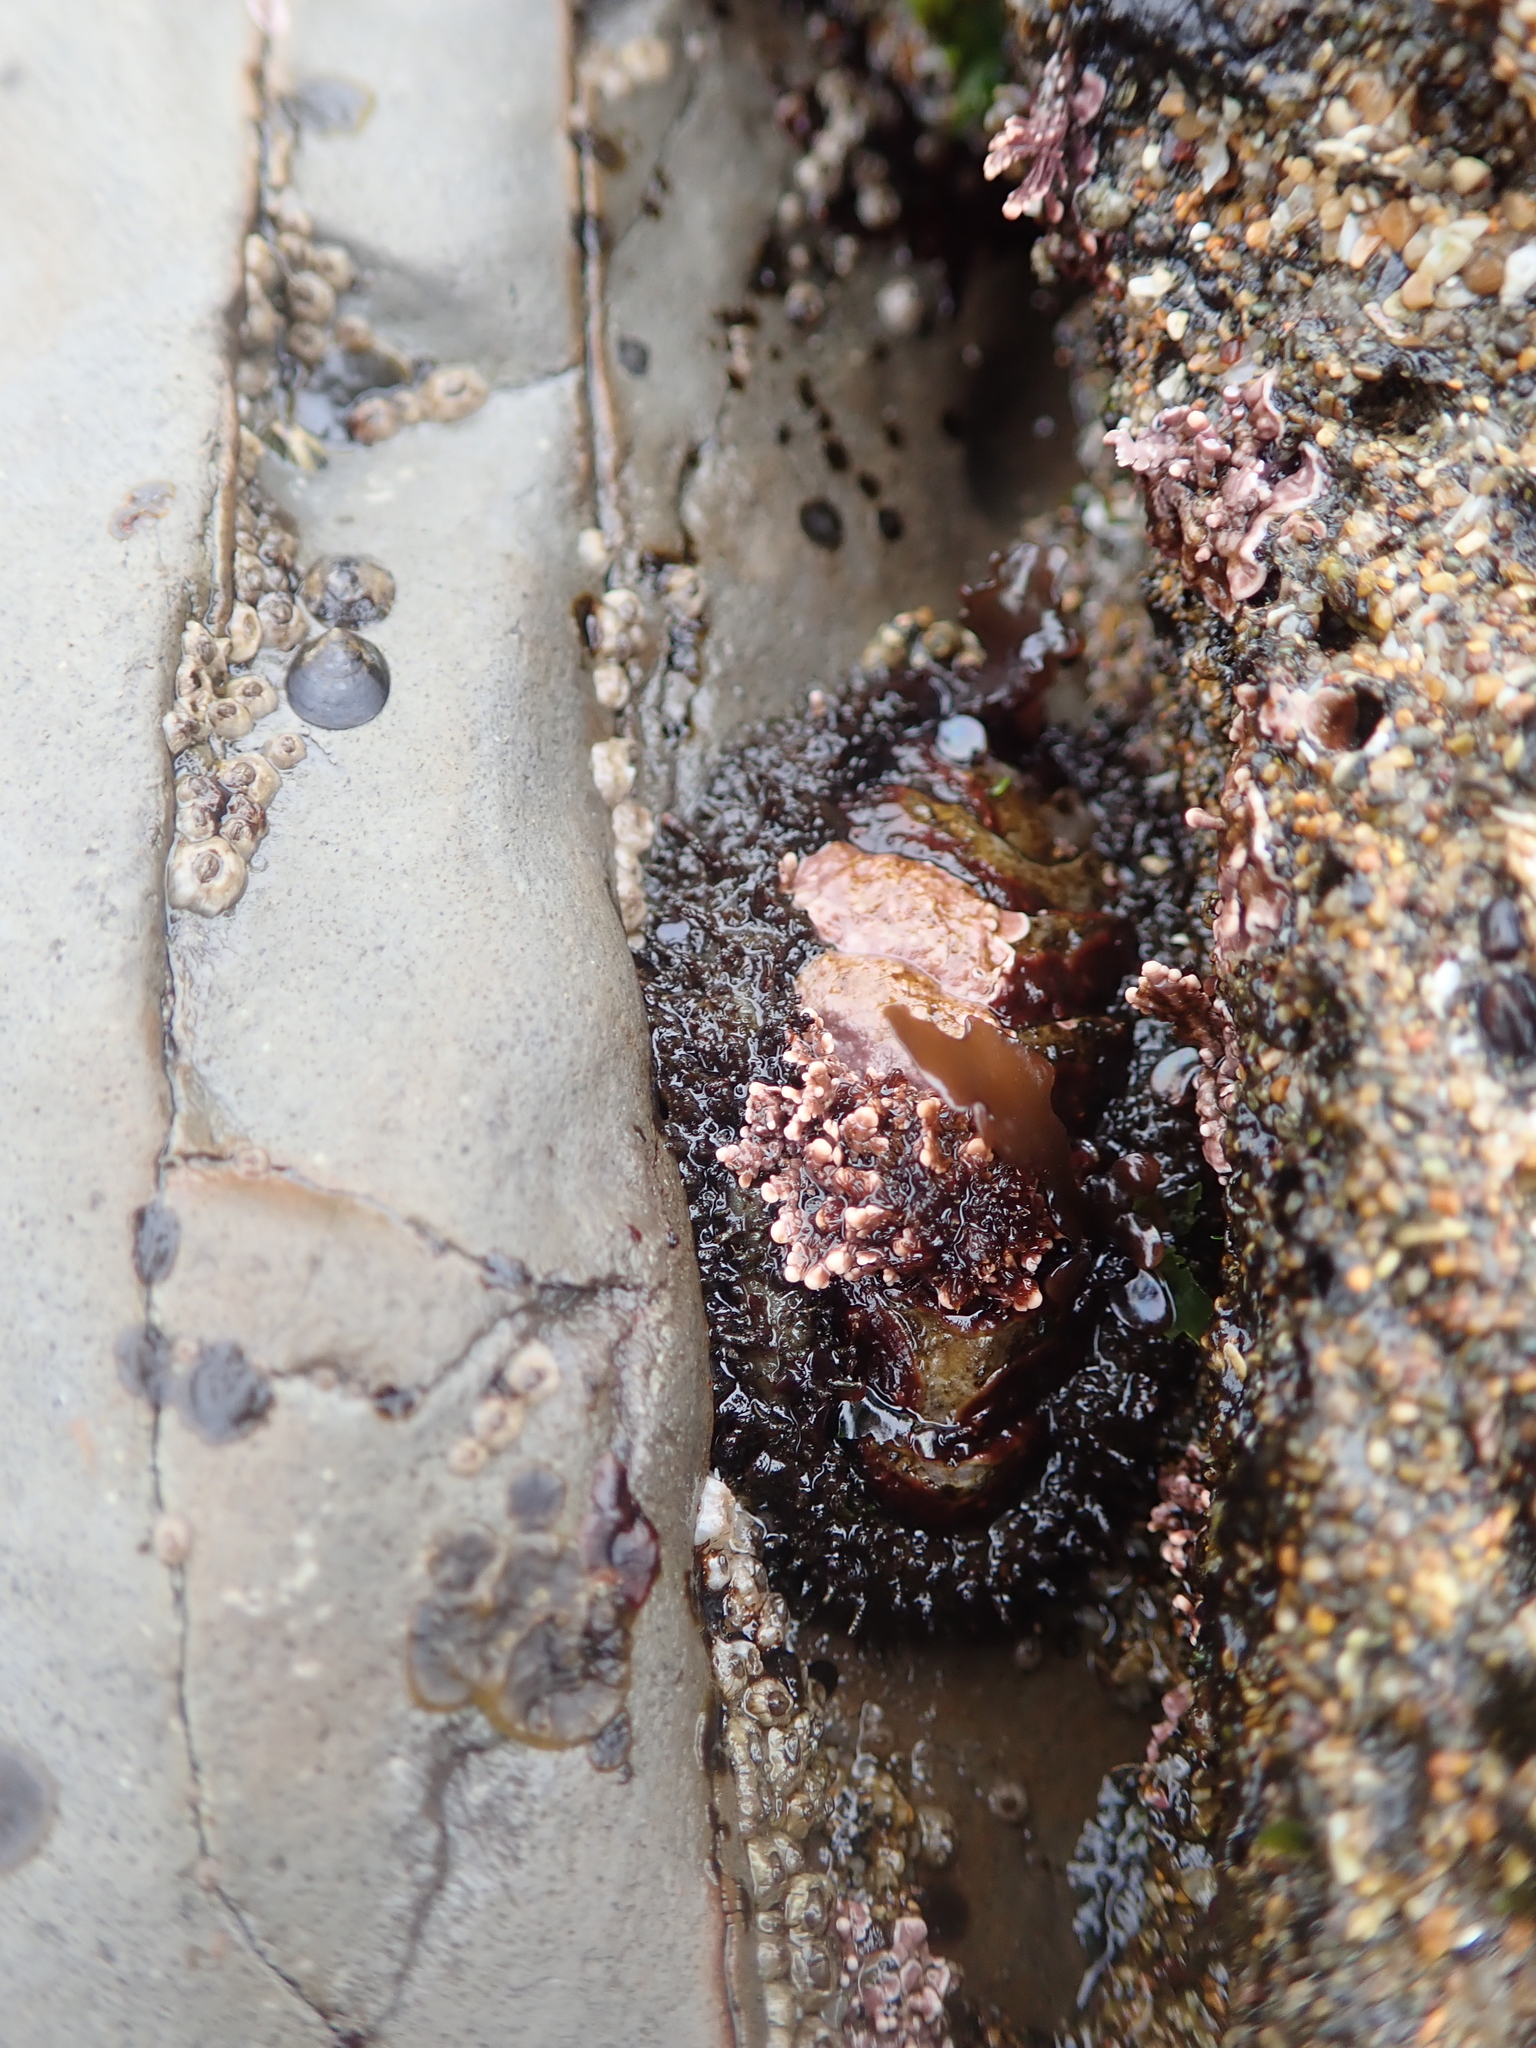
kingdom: Animalia
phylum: Mollusca
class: Polyplacophora
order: Chitonida
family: Mopaliidae
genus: Mopalia
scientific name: Mopalia muscosa
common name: Mossy chiton
